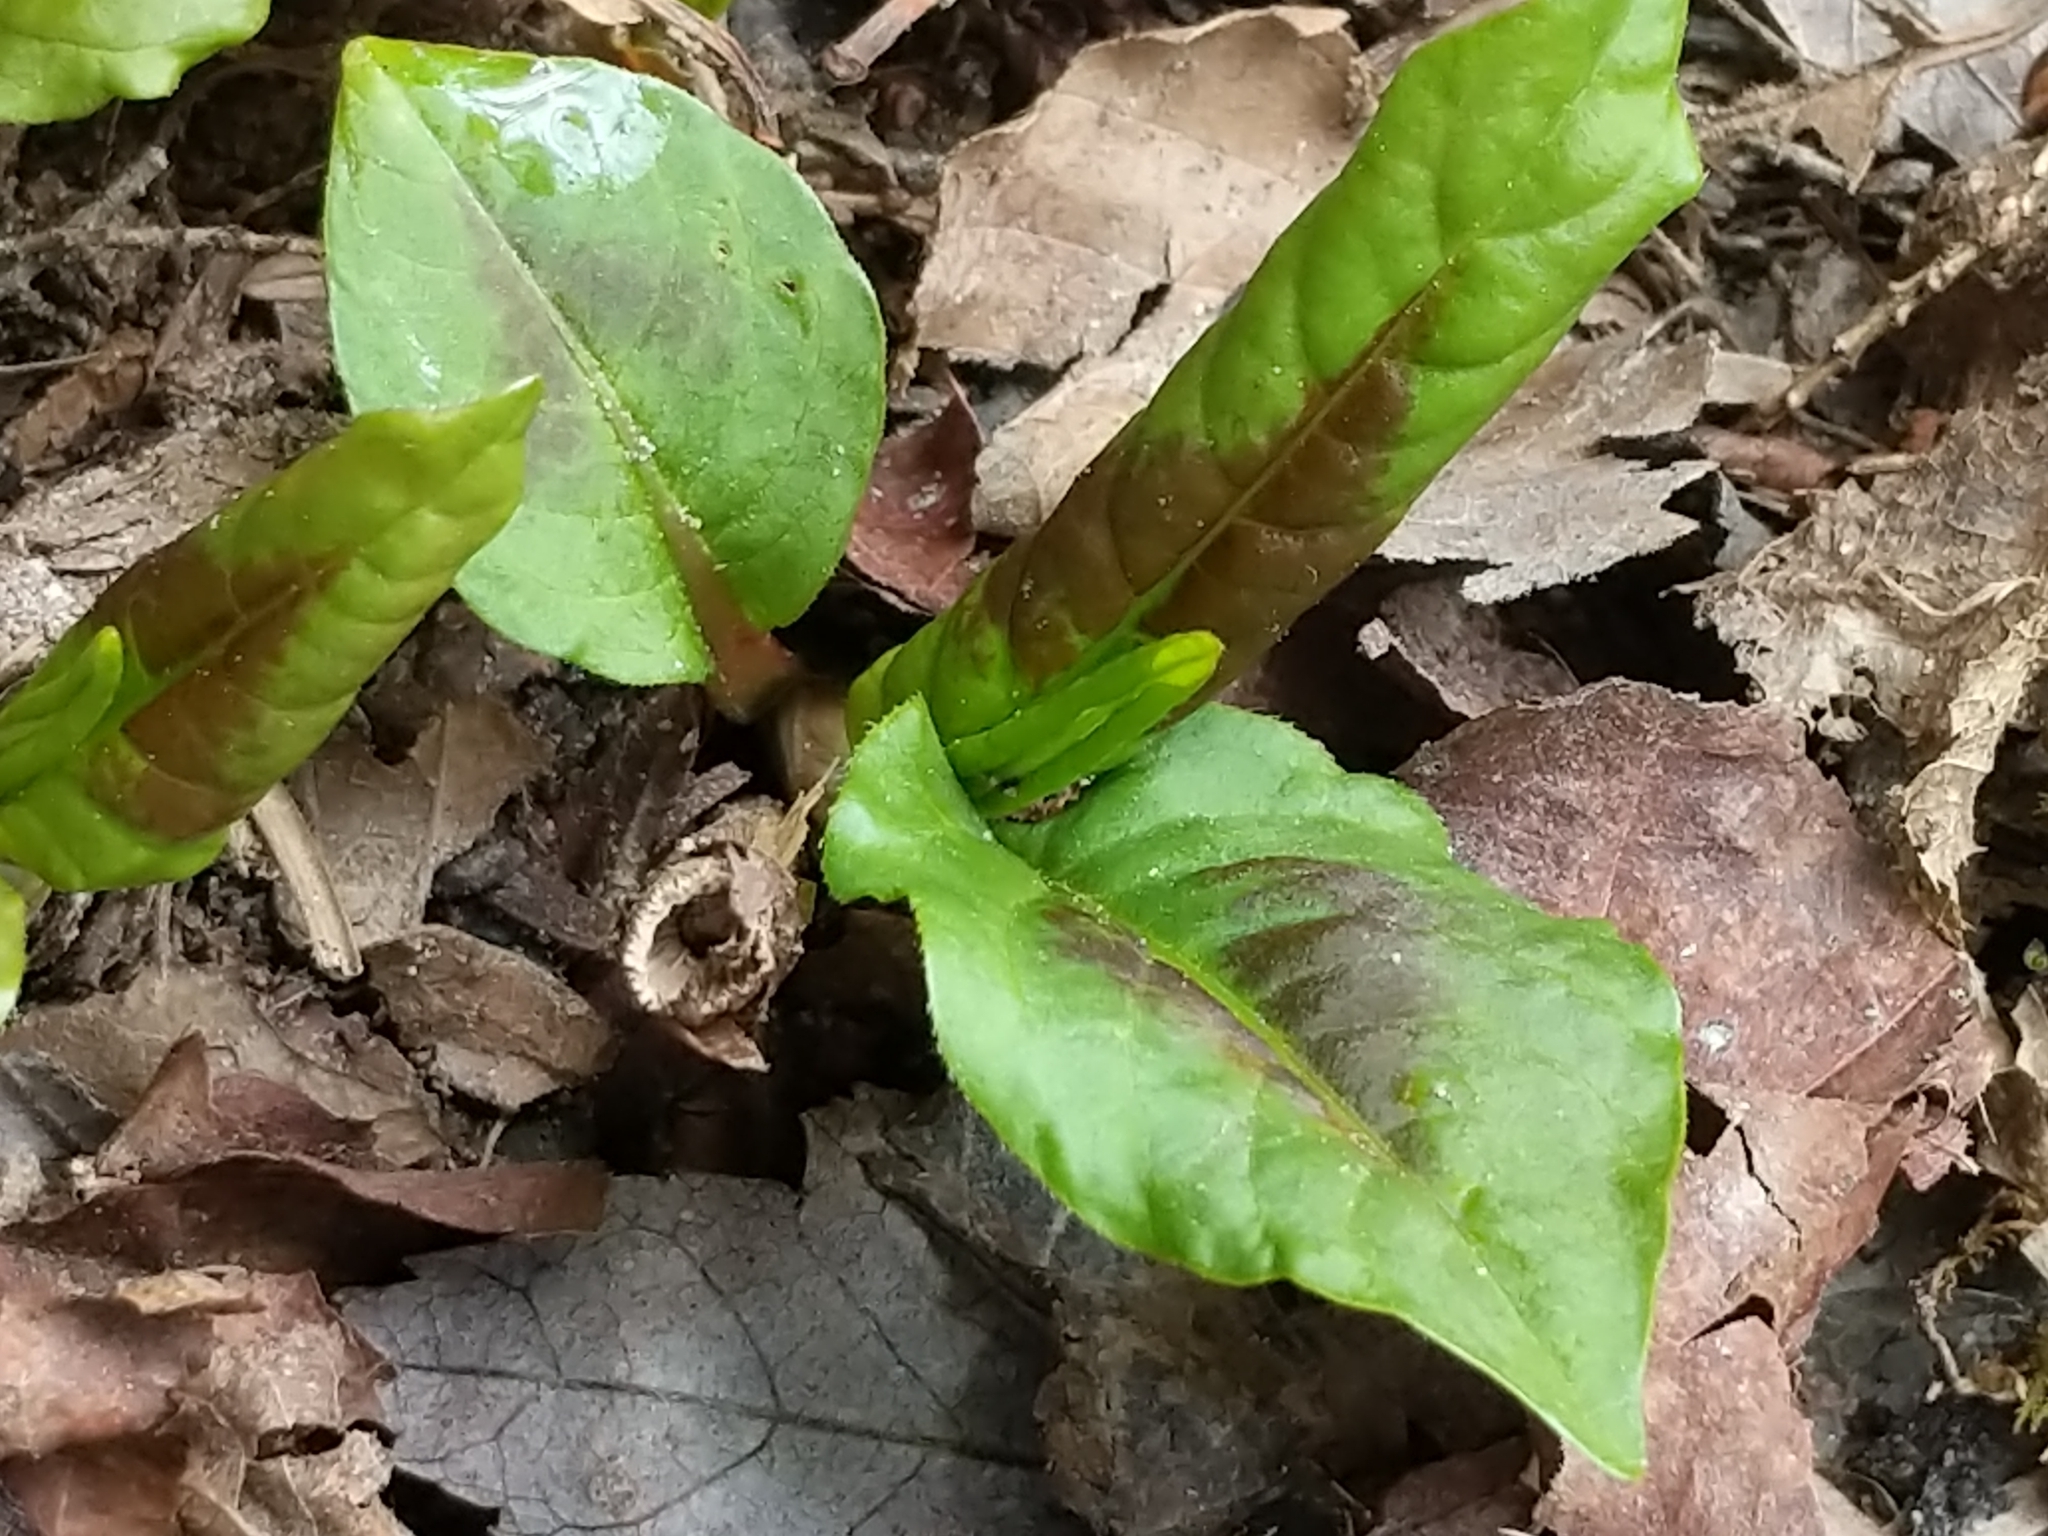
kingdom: Plantae
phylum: Tracheophyta
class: Magnoliopsida
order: Caryophyllales
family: Polygonaceae
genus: Persicaria
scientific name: Persicaria virginiana
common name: Jumpseed
